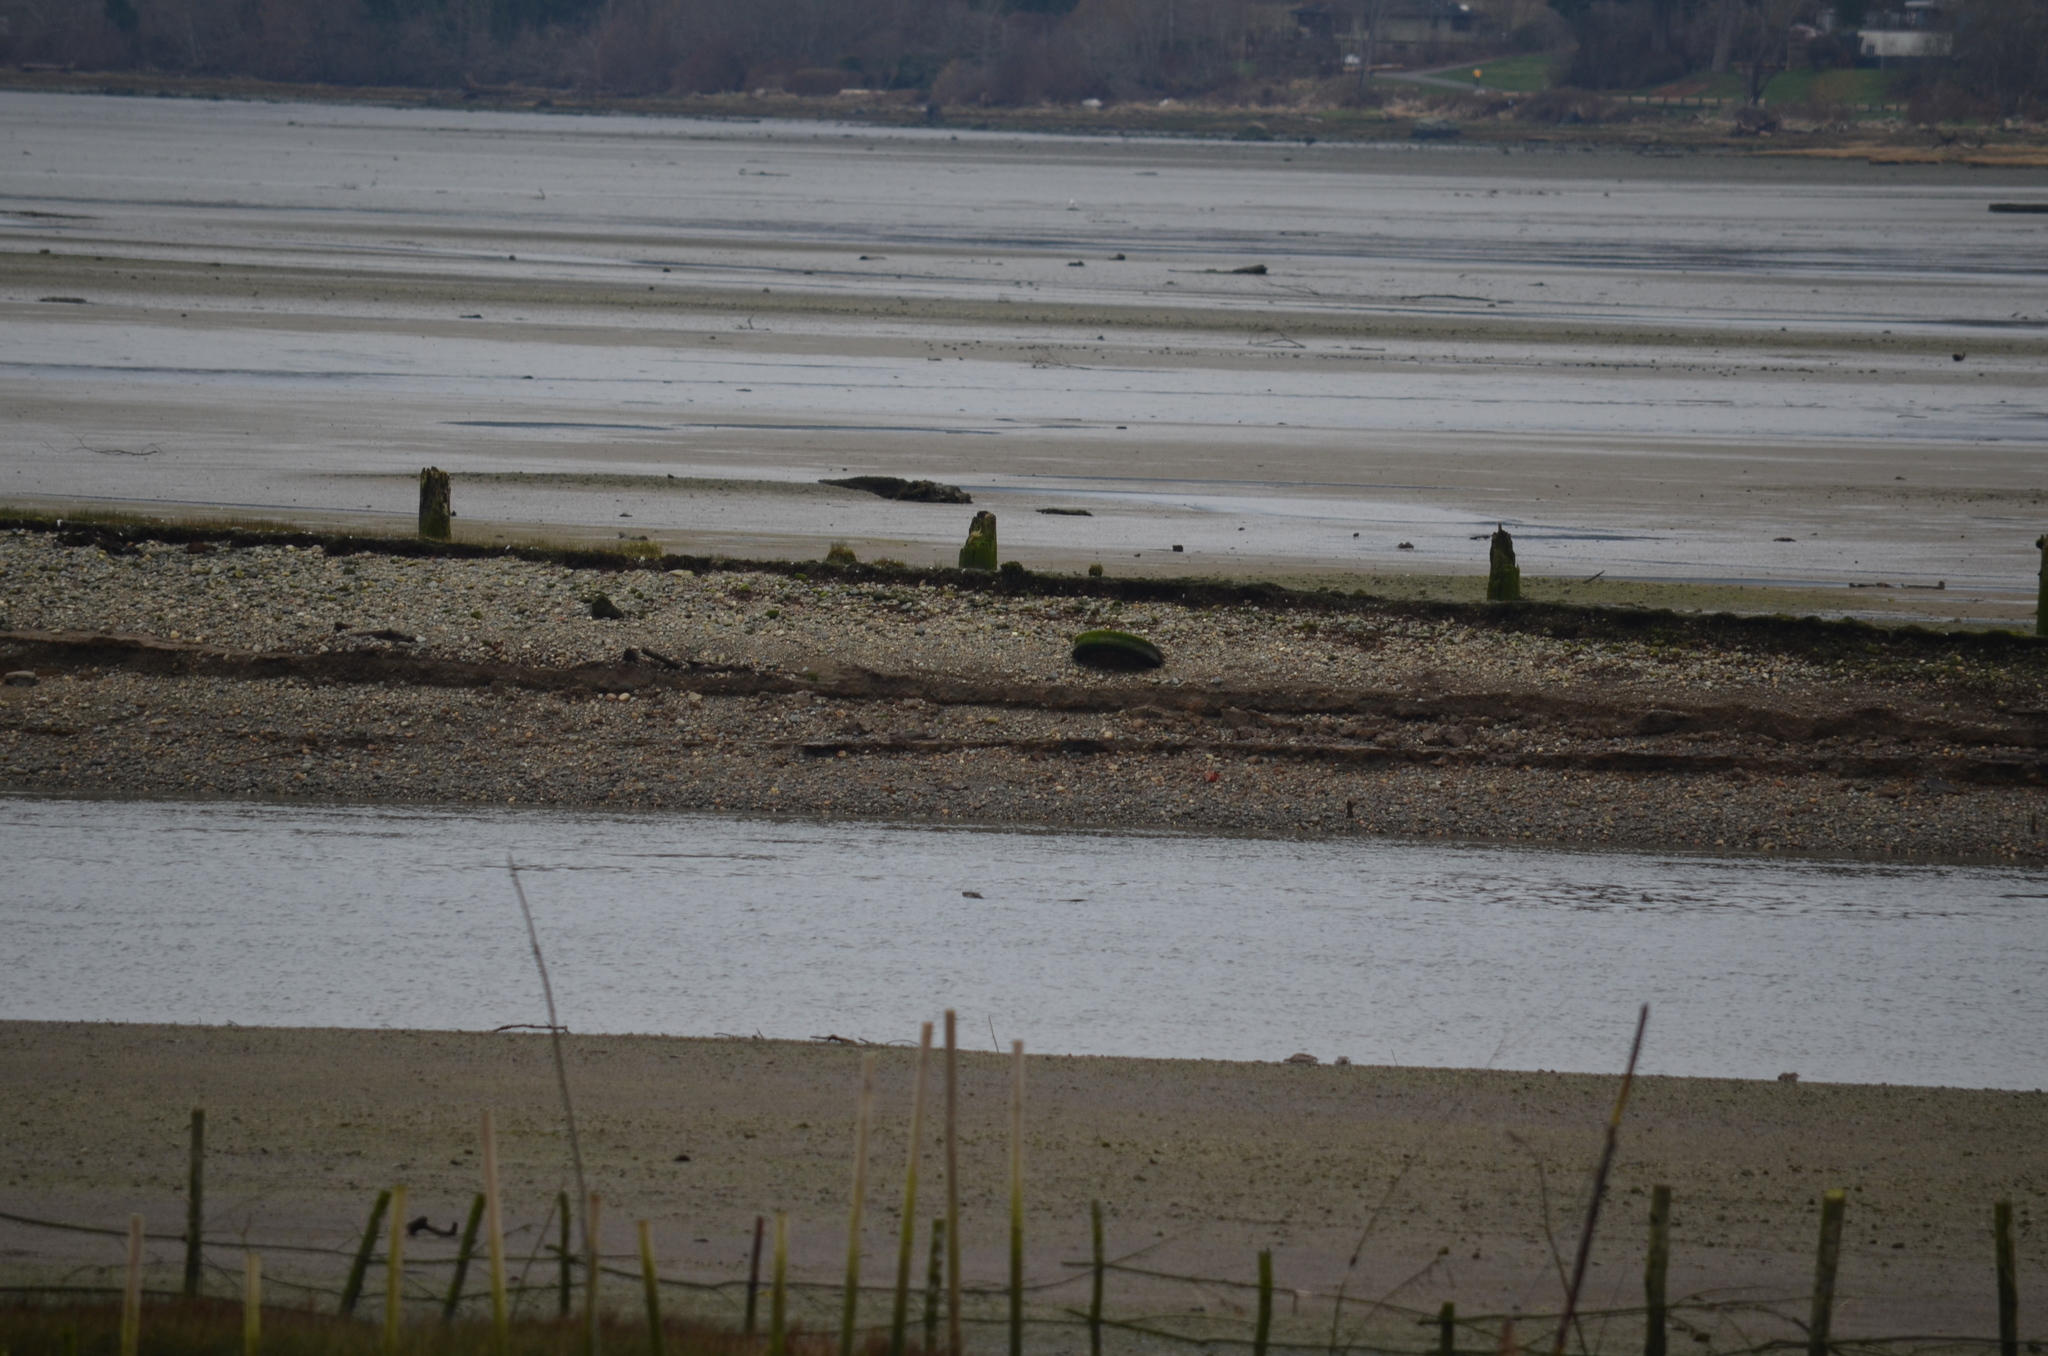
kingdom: Animalia
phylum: Chordata
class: Mammalia
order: Carnivora
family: Mustelidae
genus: Lontra
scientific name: Lontra canadensis
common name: North american river otter
